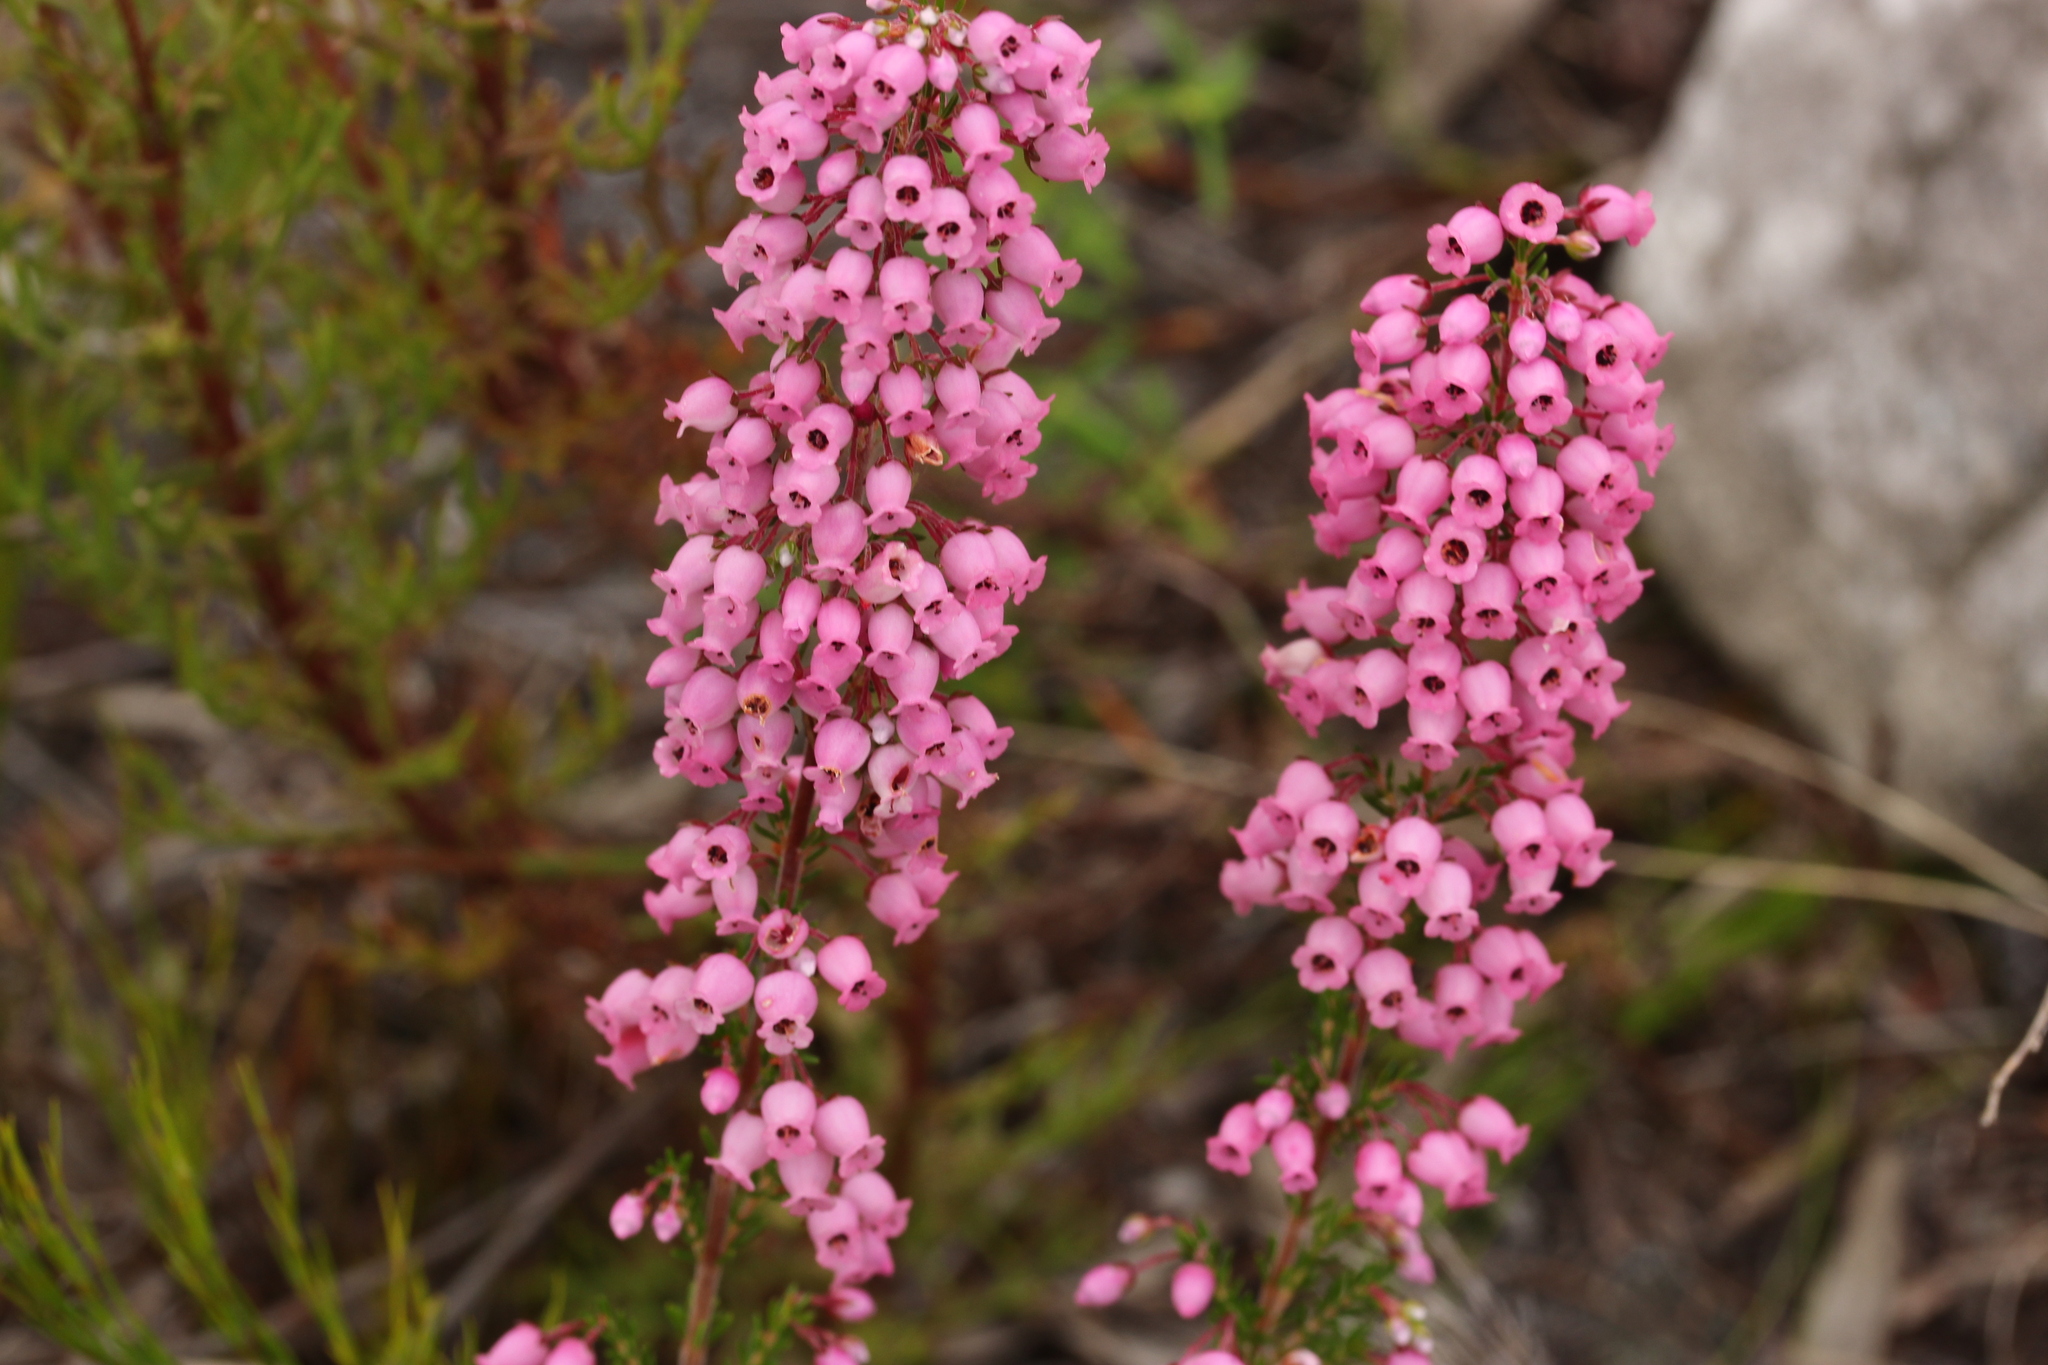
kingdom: Plantae
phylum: Tracheophyta
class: Magnoliopsida
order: Ericales
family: Ericaceae
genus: Erica
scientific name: Erica tenella
